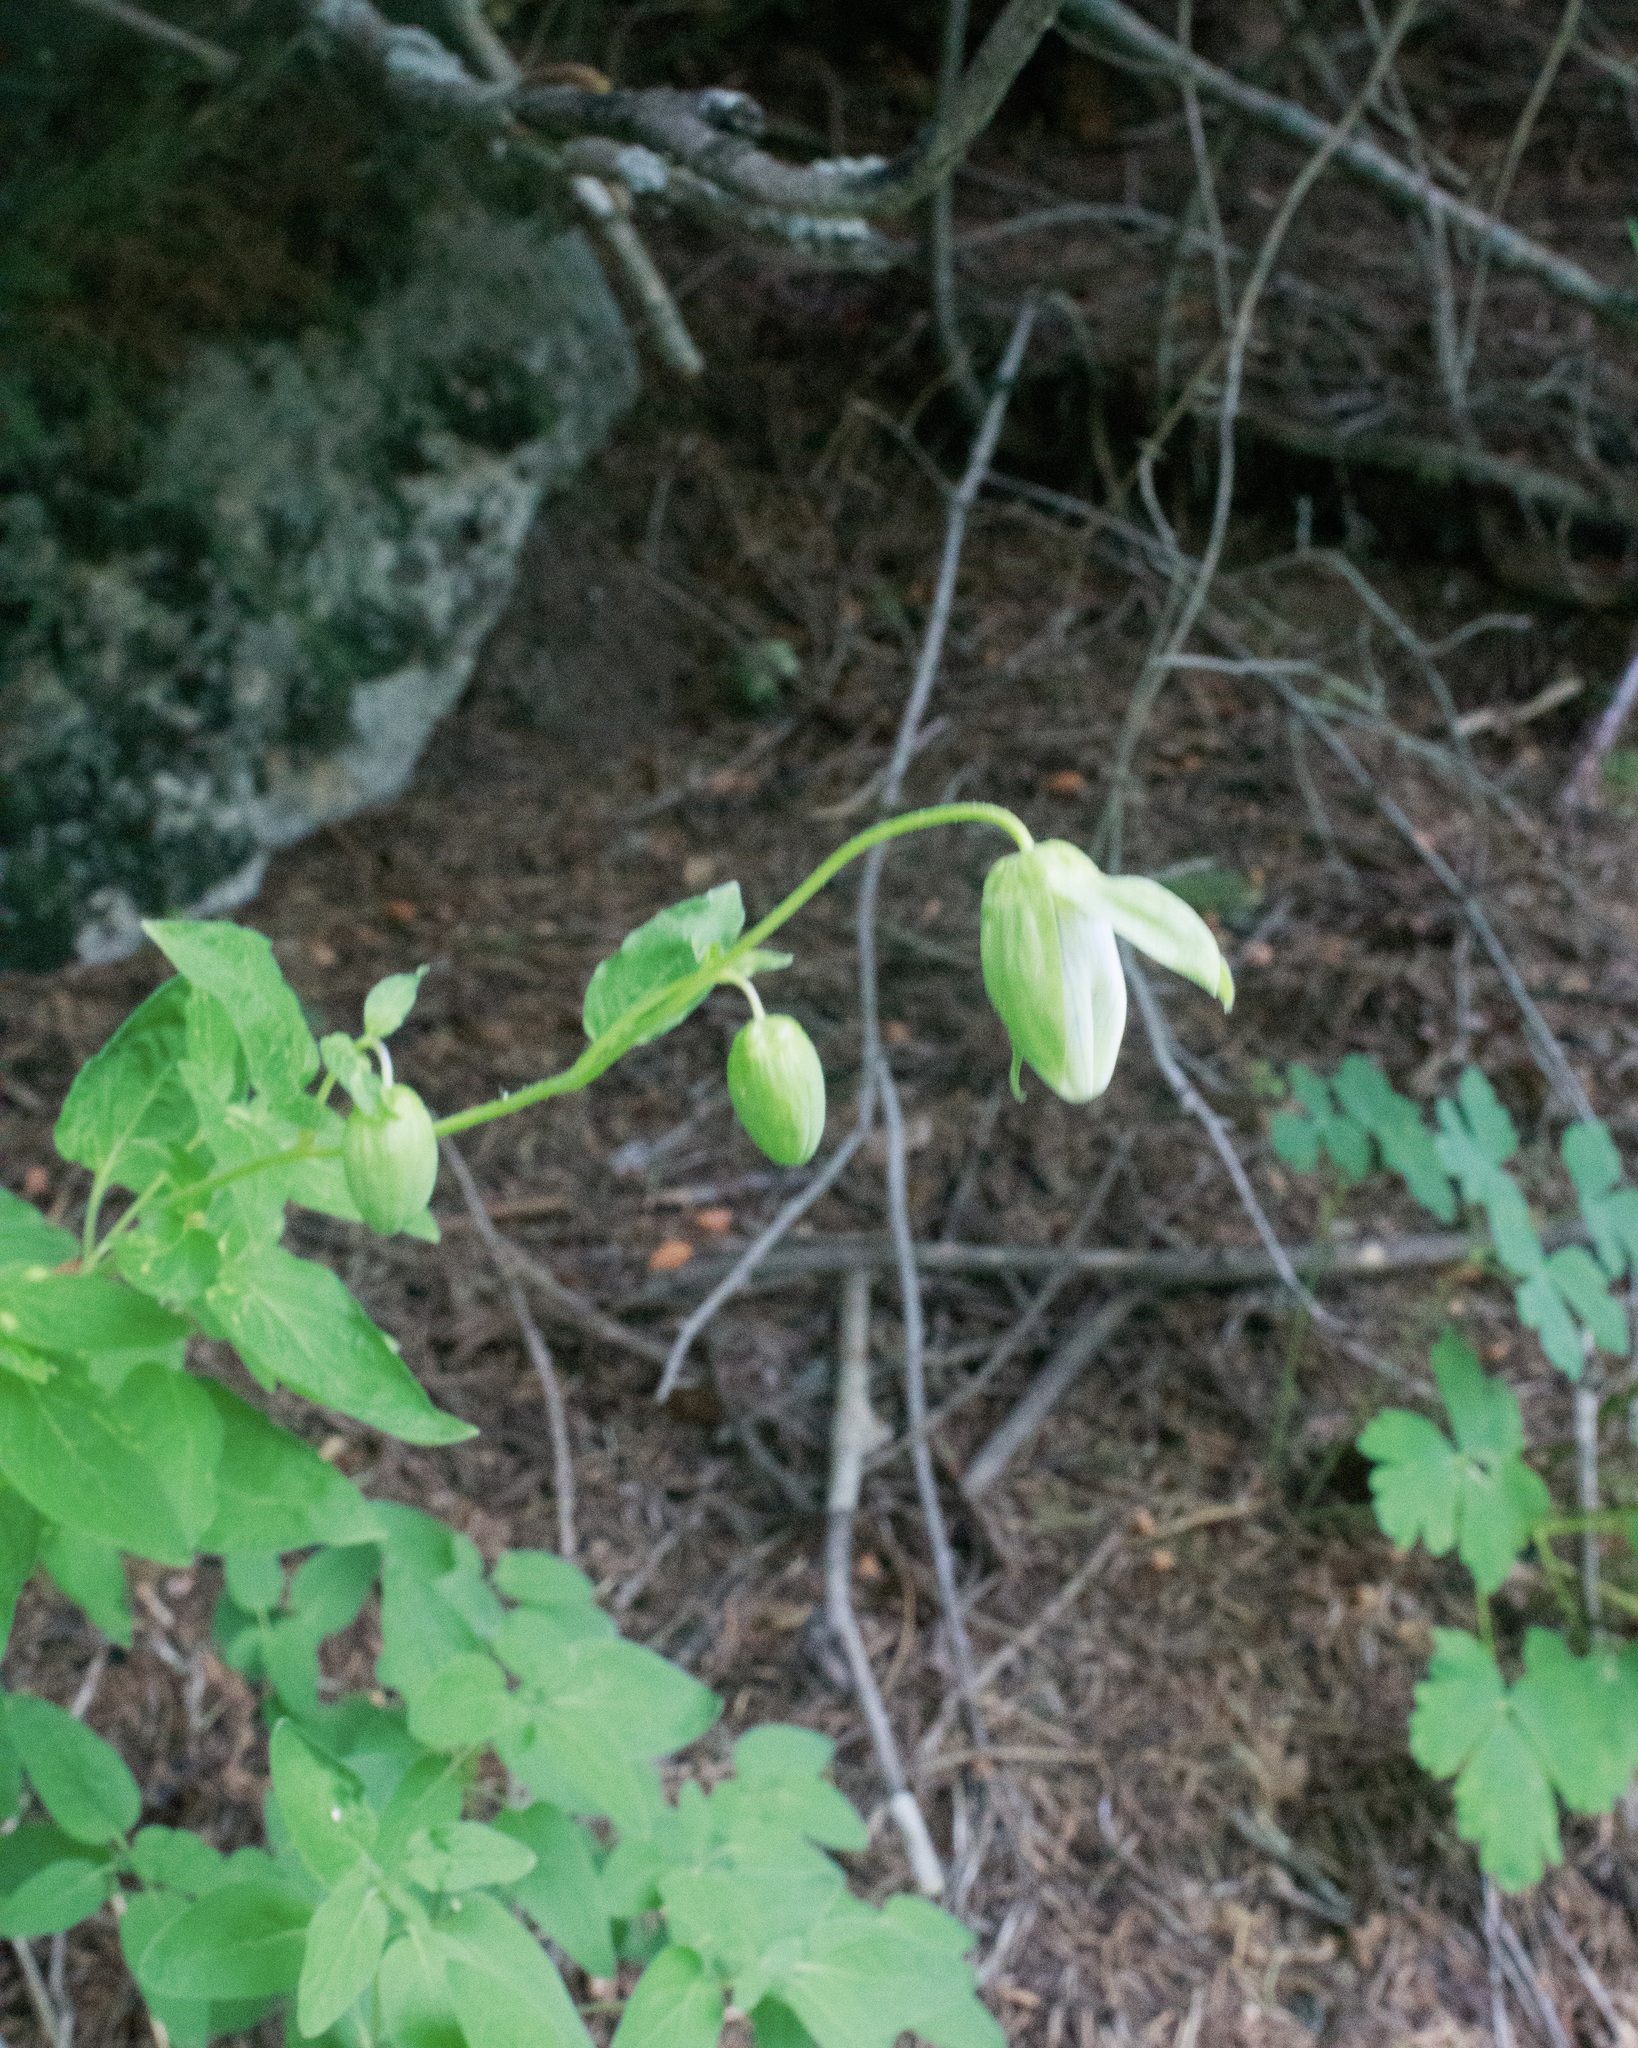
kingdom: Plantae
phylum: Tracheophyta
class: Magnoliopsida
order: Ranunculales
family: Ranunculaceae
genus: Clematis
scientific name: Clematis sibirica
